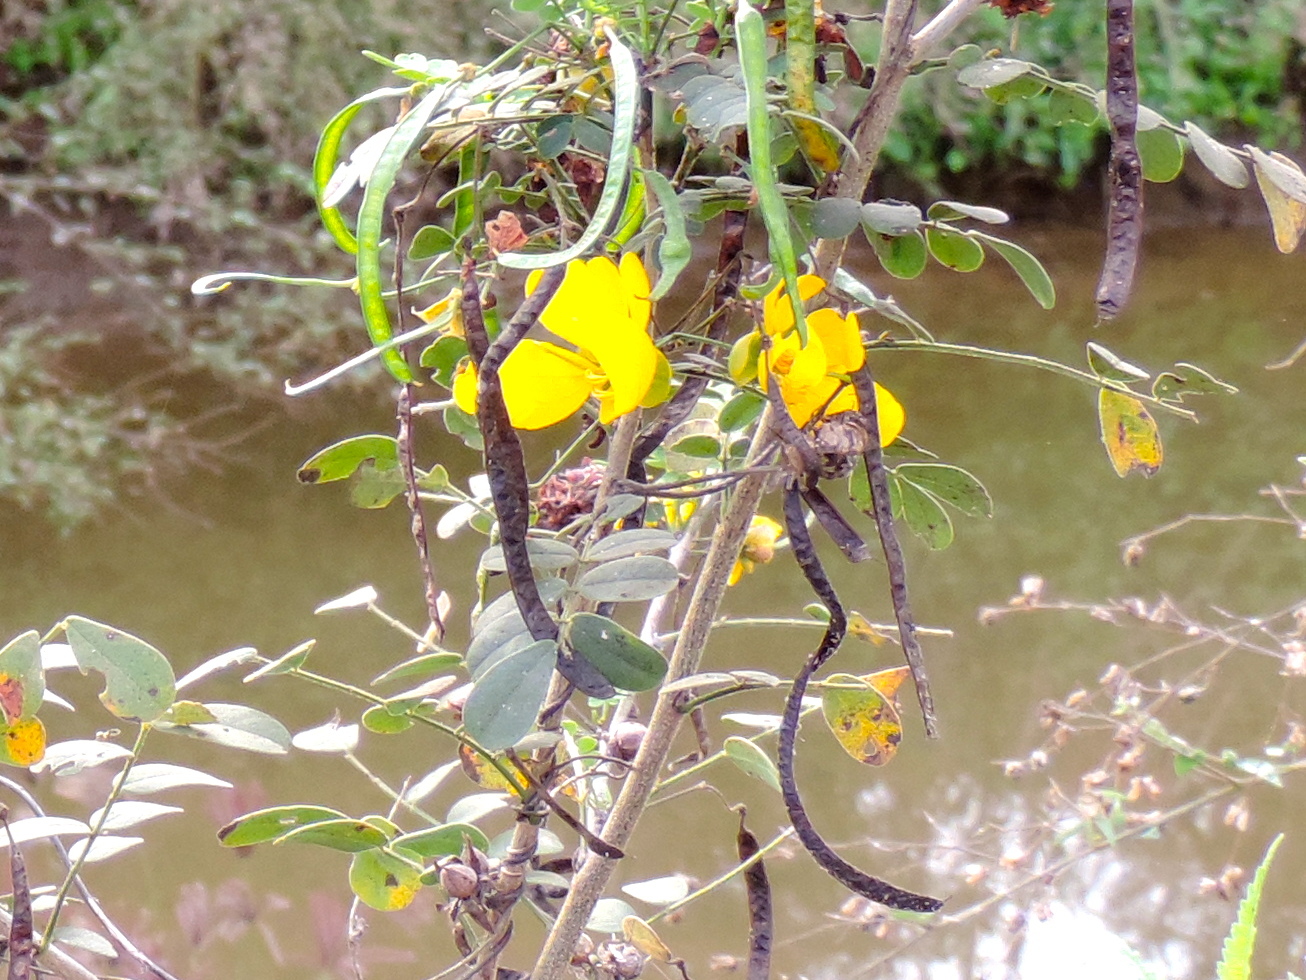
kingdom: Plantae
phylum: Tracheophyta
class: Magnoliopsida
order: Fabales
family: Fabaceae
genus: Senna
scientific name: Senna pallida
